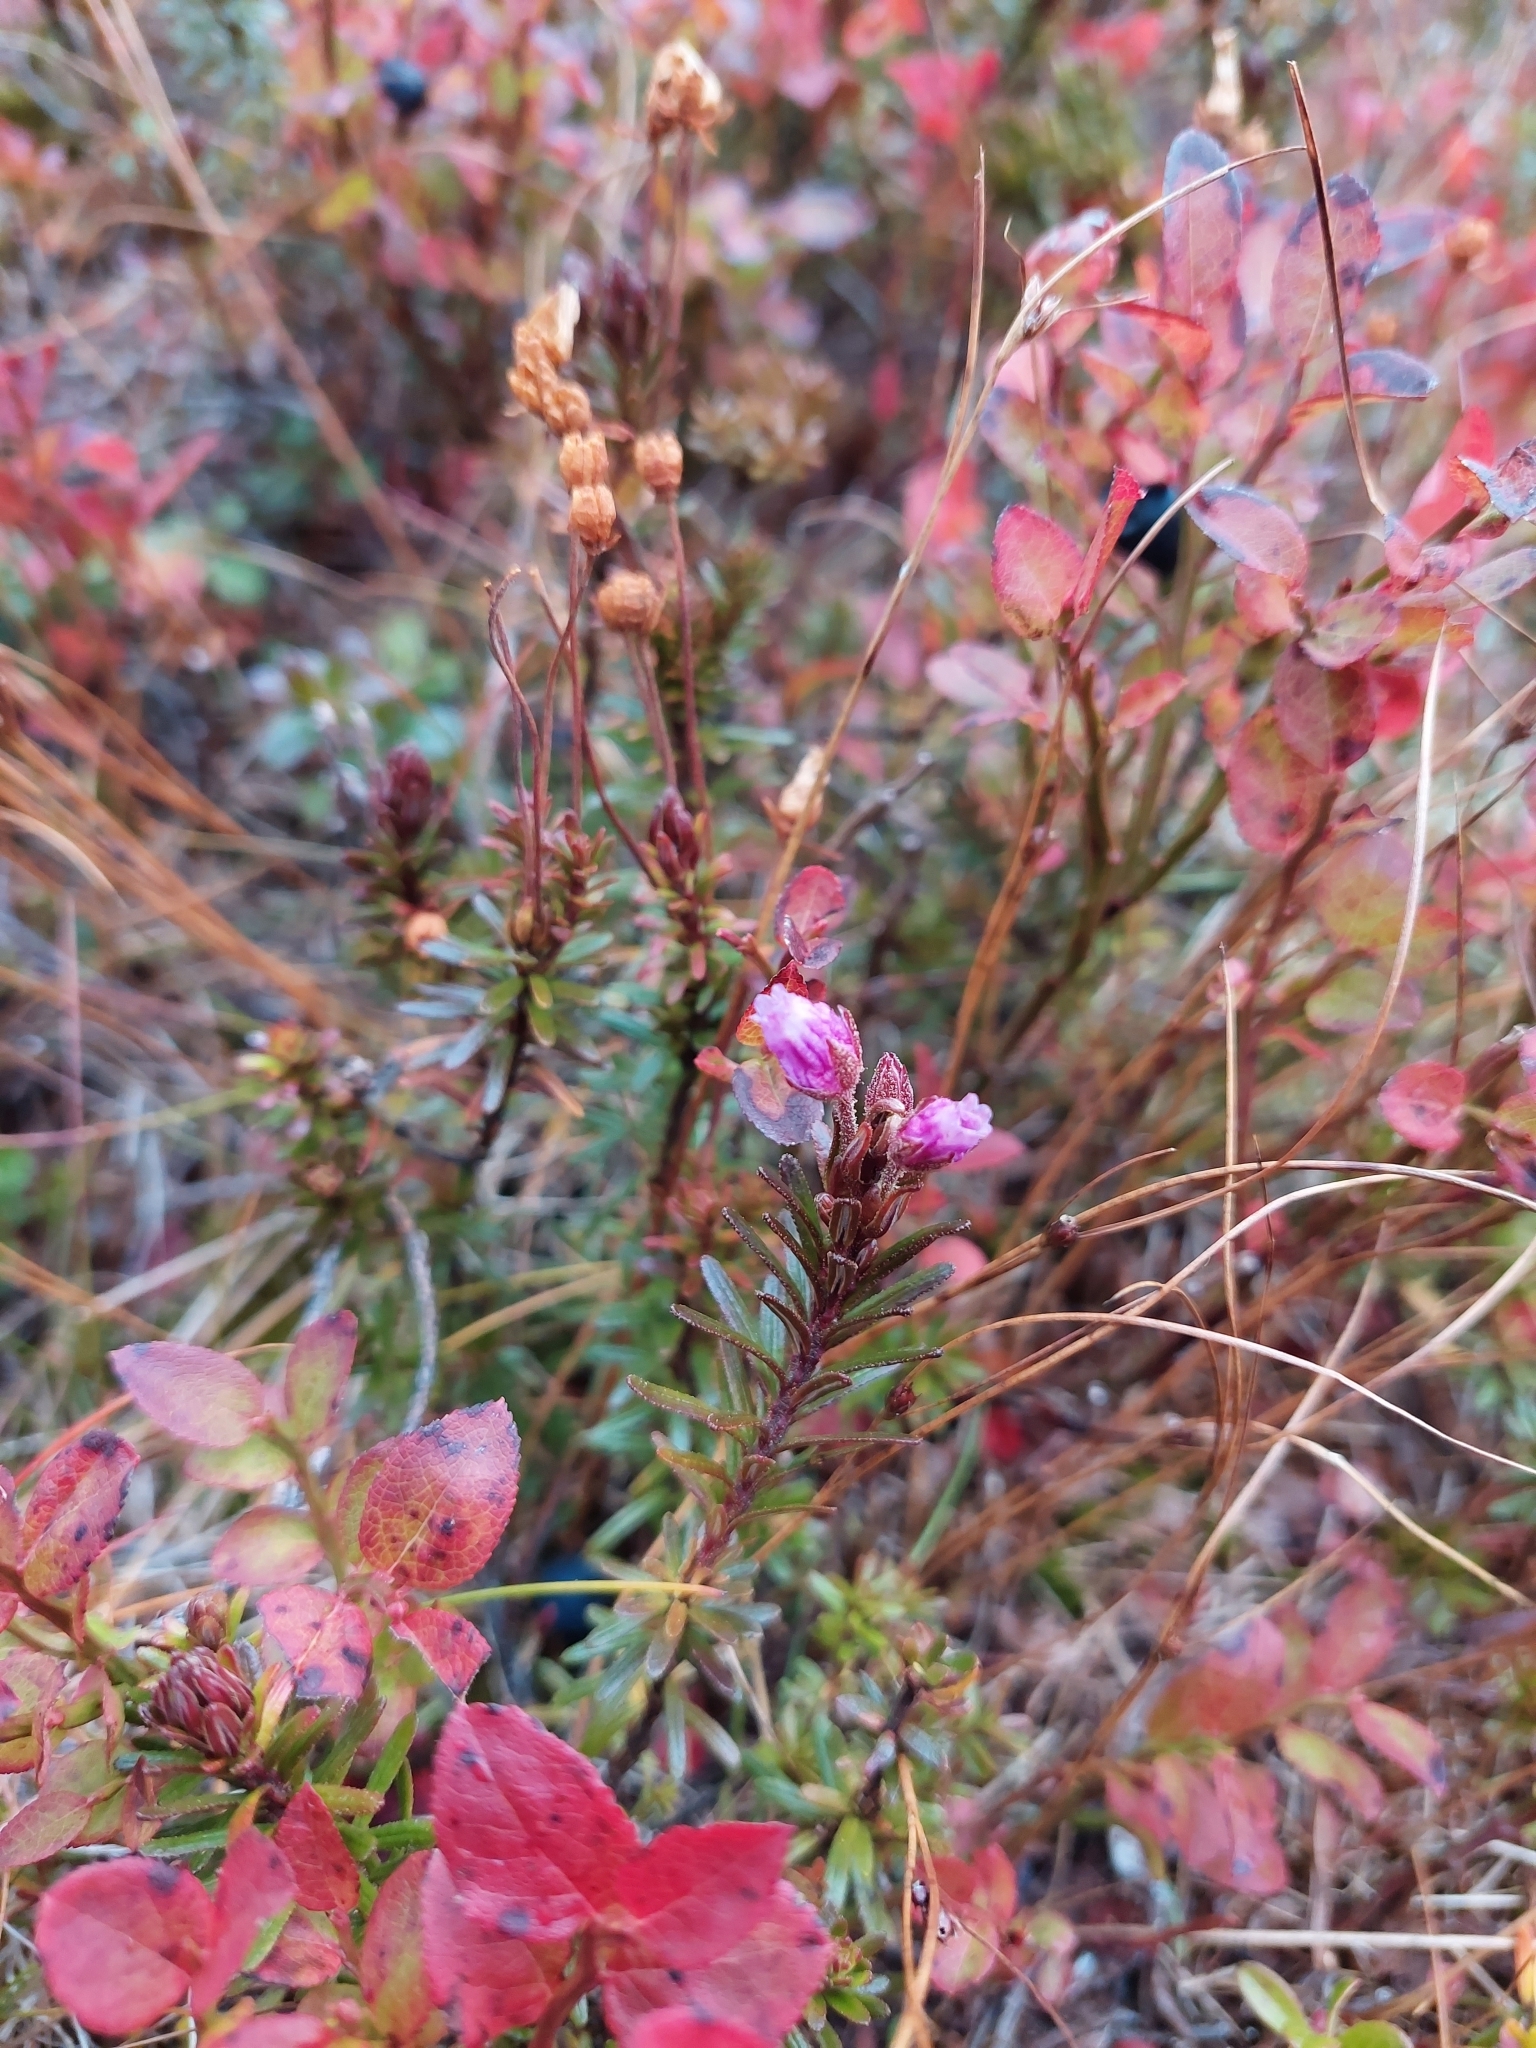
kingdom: Plantae
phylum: Tracheophyta
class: Magnoliopsida
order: Ericales
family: Ericaceae
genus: Phyllodoce
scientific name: Phyllodoce caerulea
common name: Blue heath
